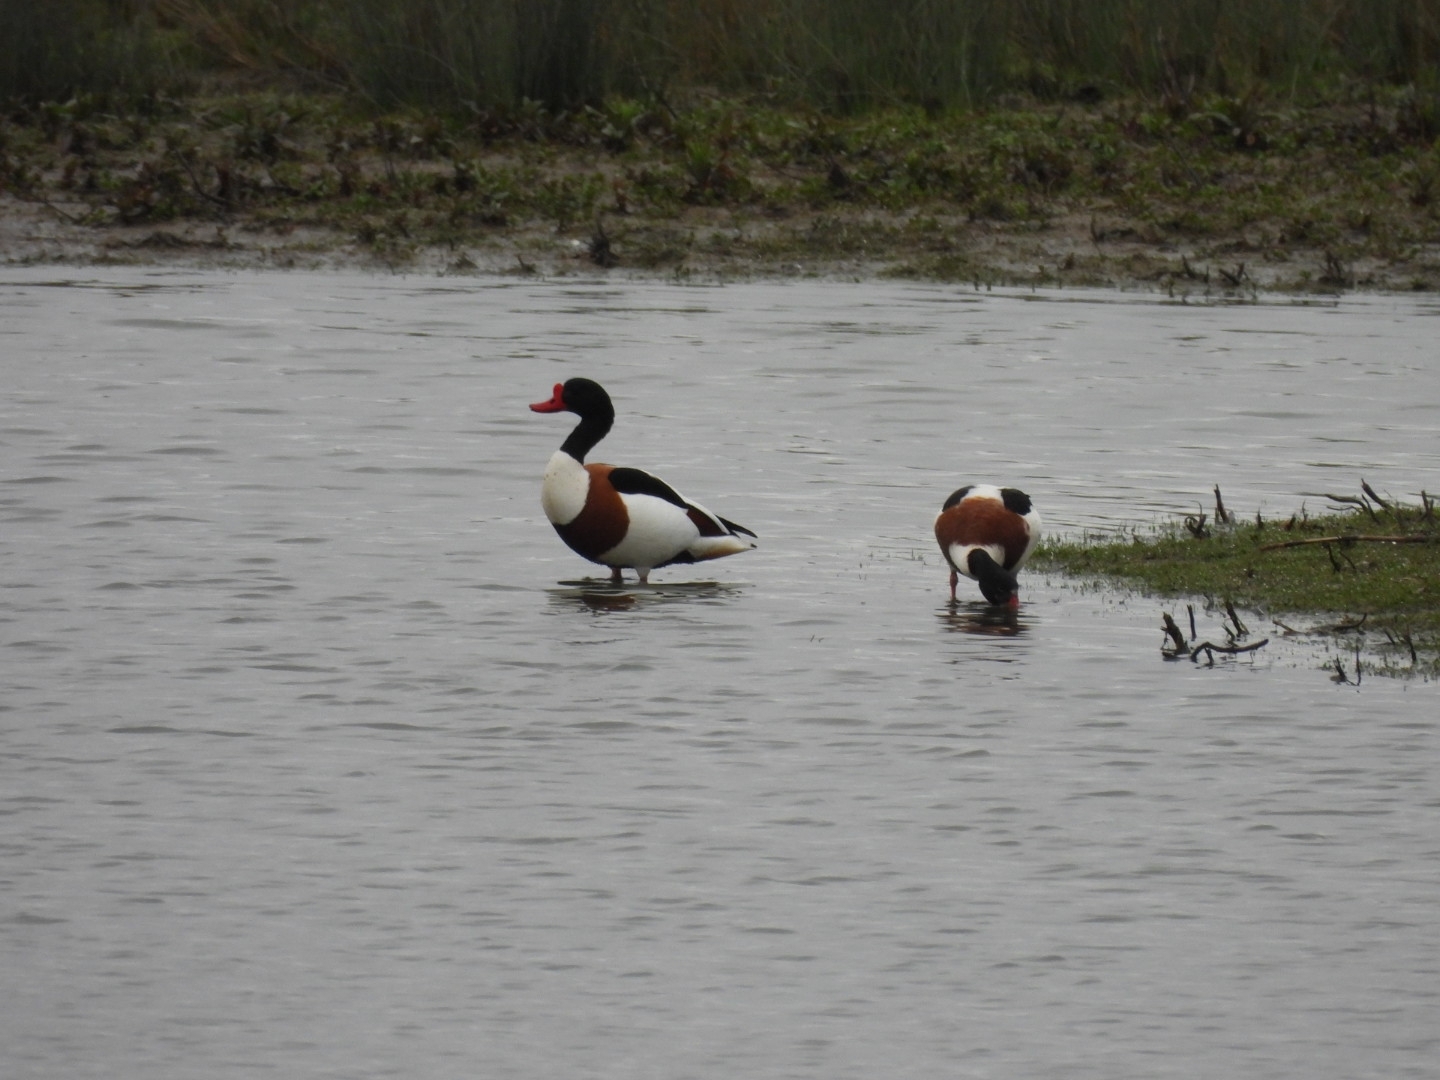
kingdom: Animalia
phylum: Chordata
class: Aves
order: Anseriformes
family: Anatidae
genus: Tadorna
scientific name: Tadorna tadorna
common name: Common shelduck
